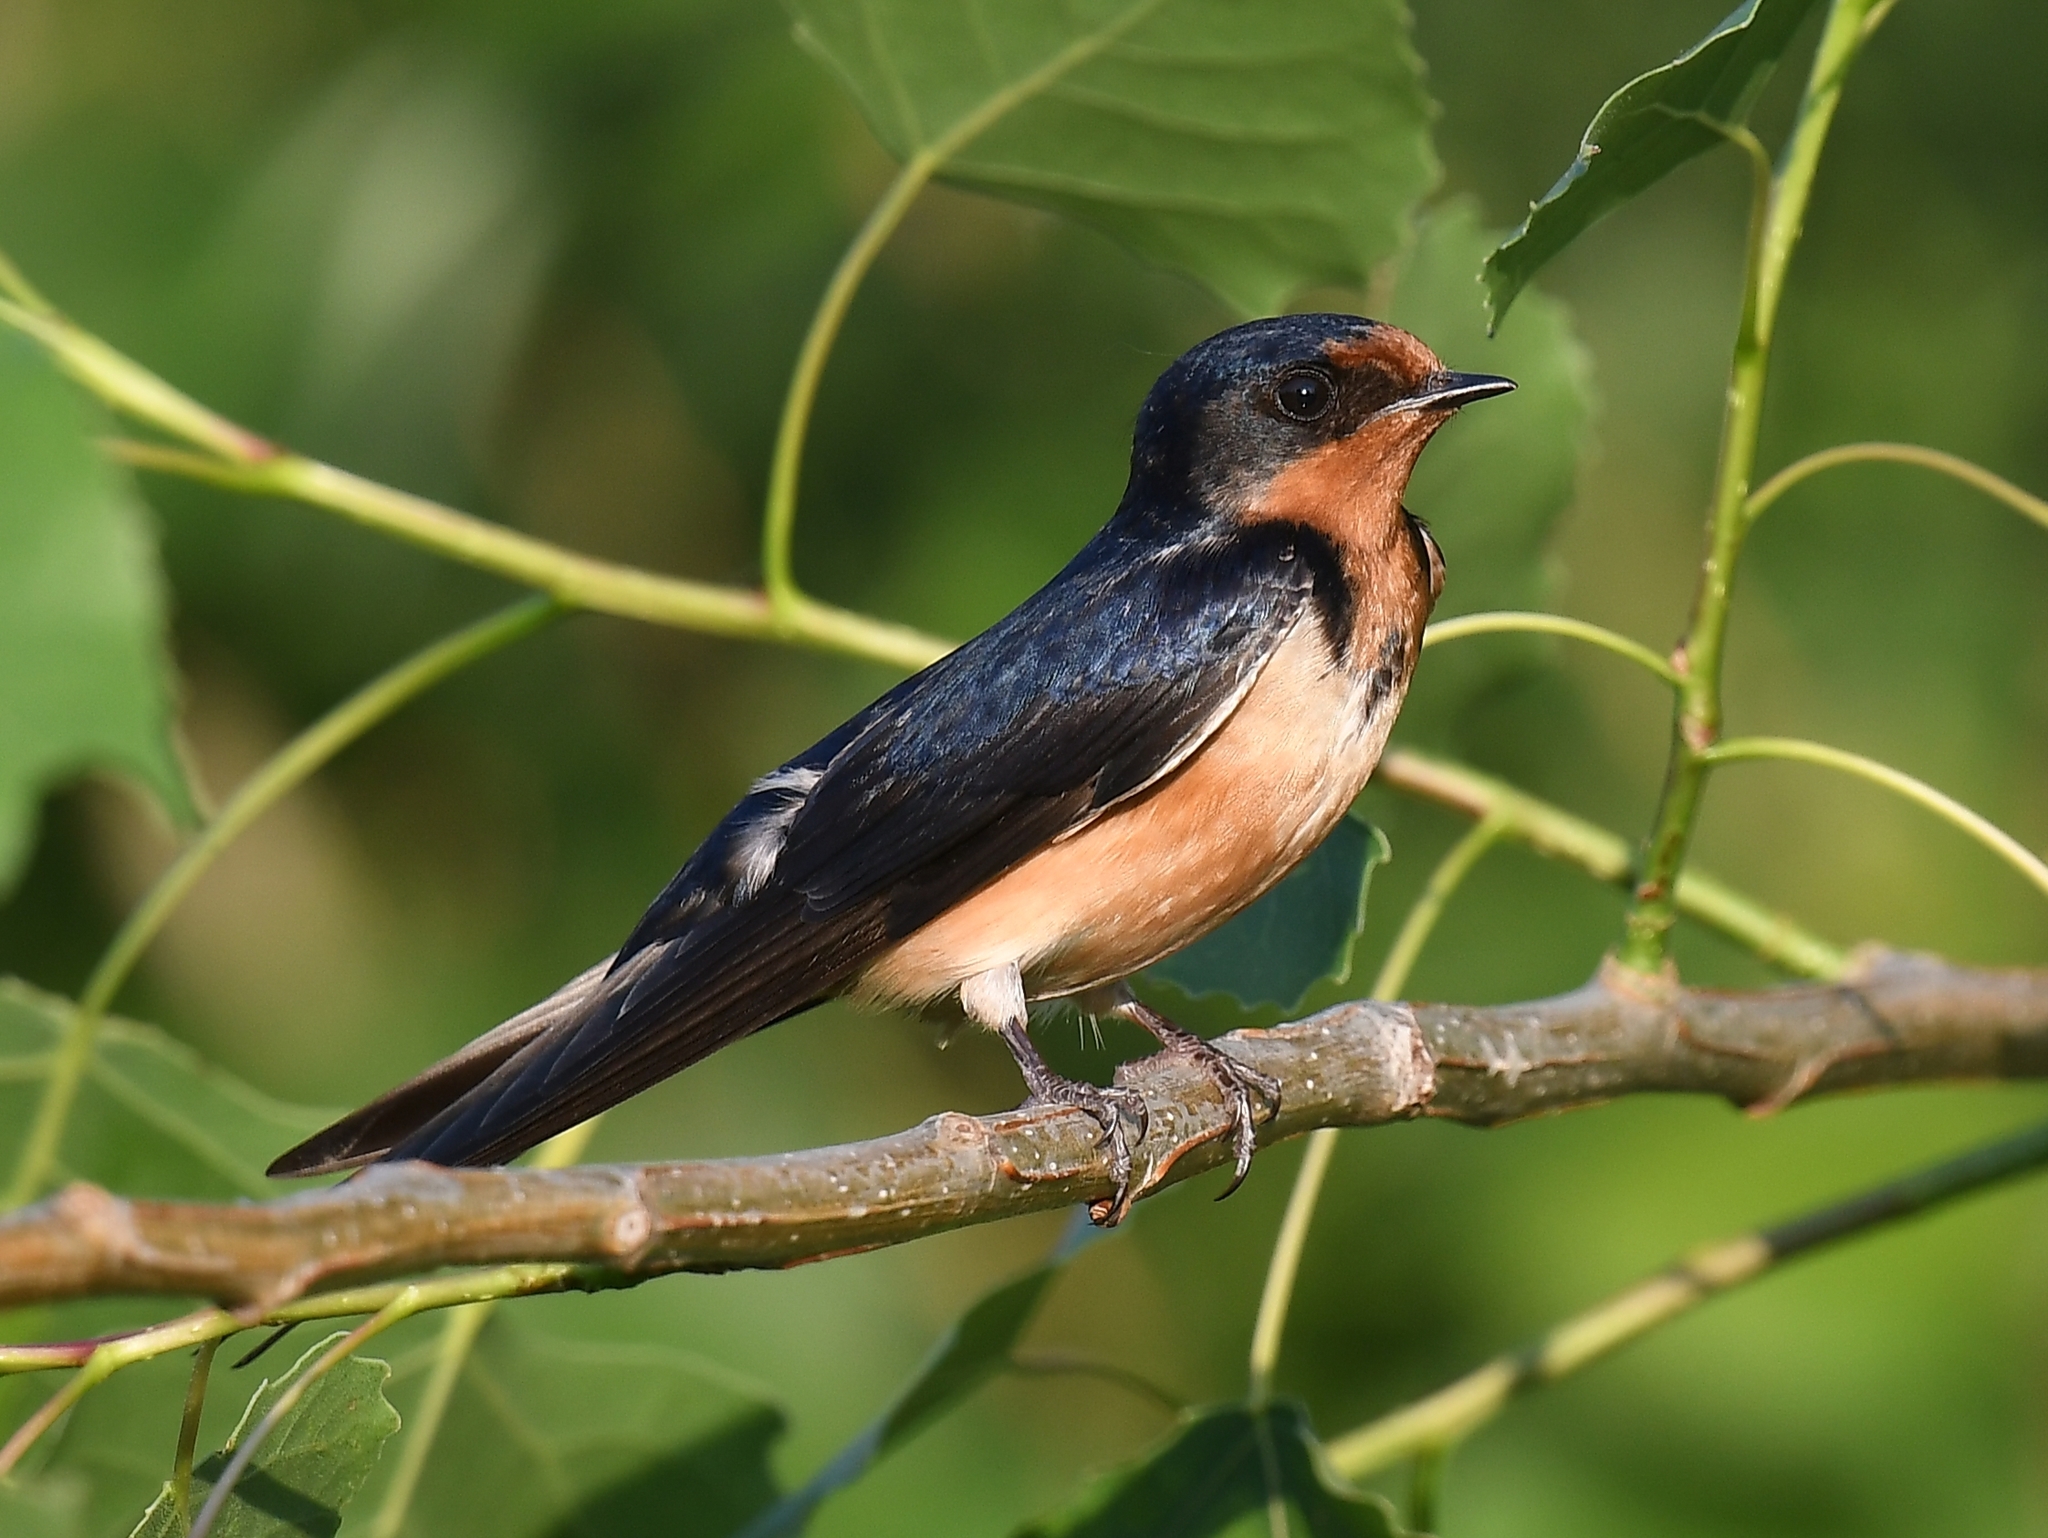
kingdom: Animalia
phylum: Chordata
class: Aves
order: Passeriformes
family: Hirundinidae
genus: Hirundo
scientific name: Hirundo rustica
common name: Barn swallow
